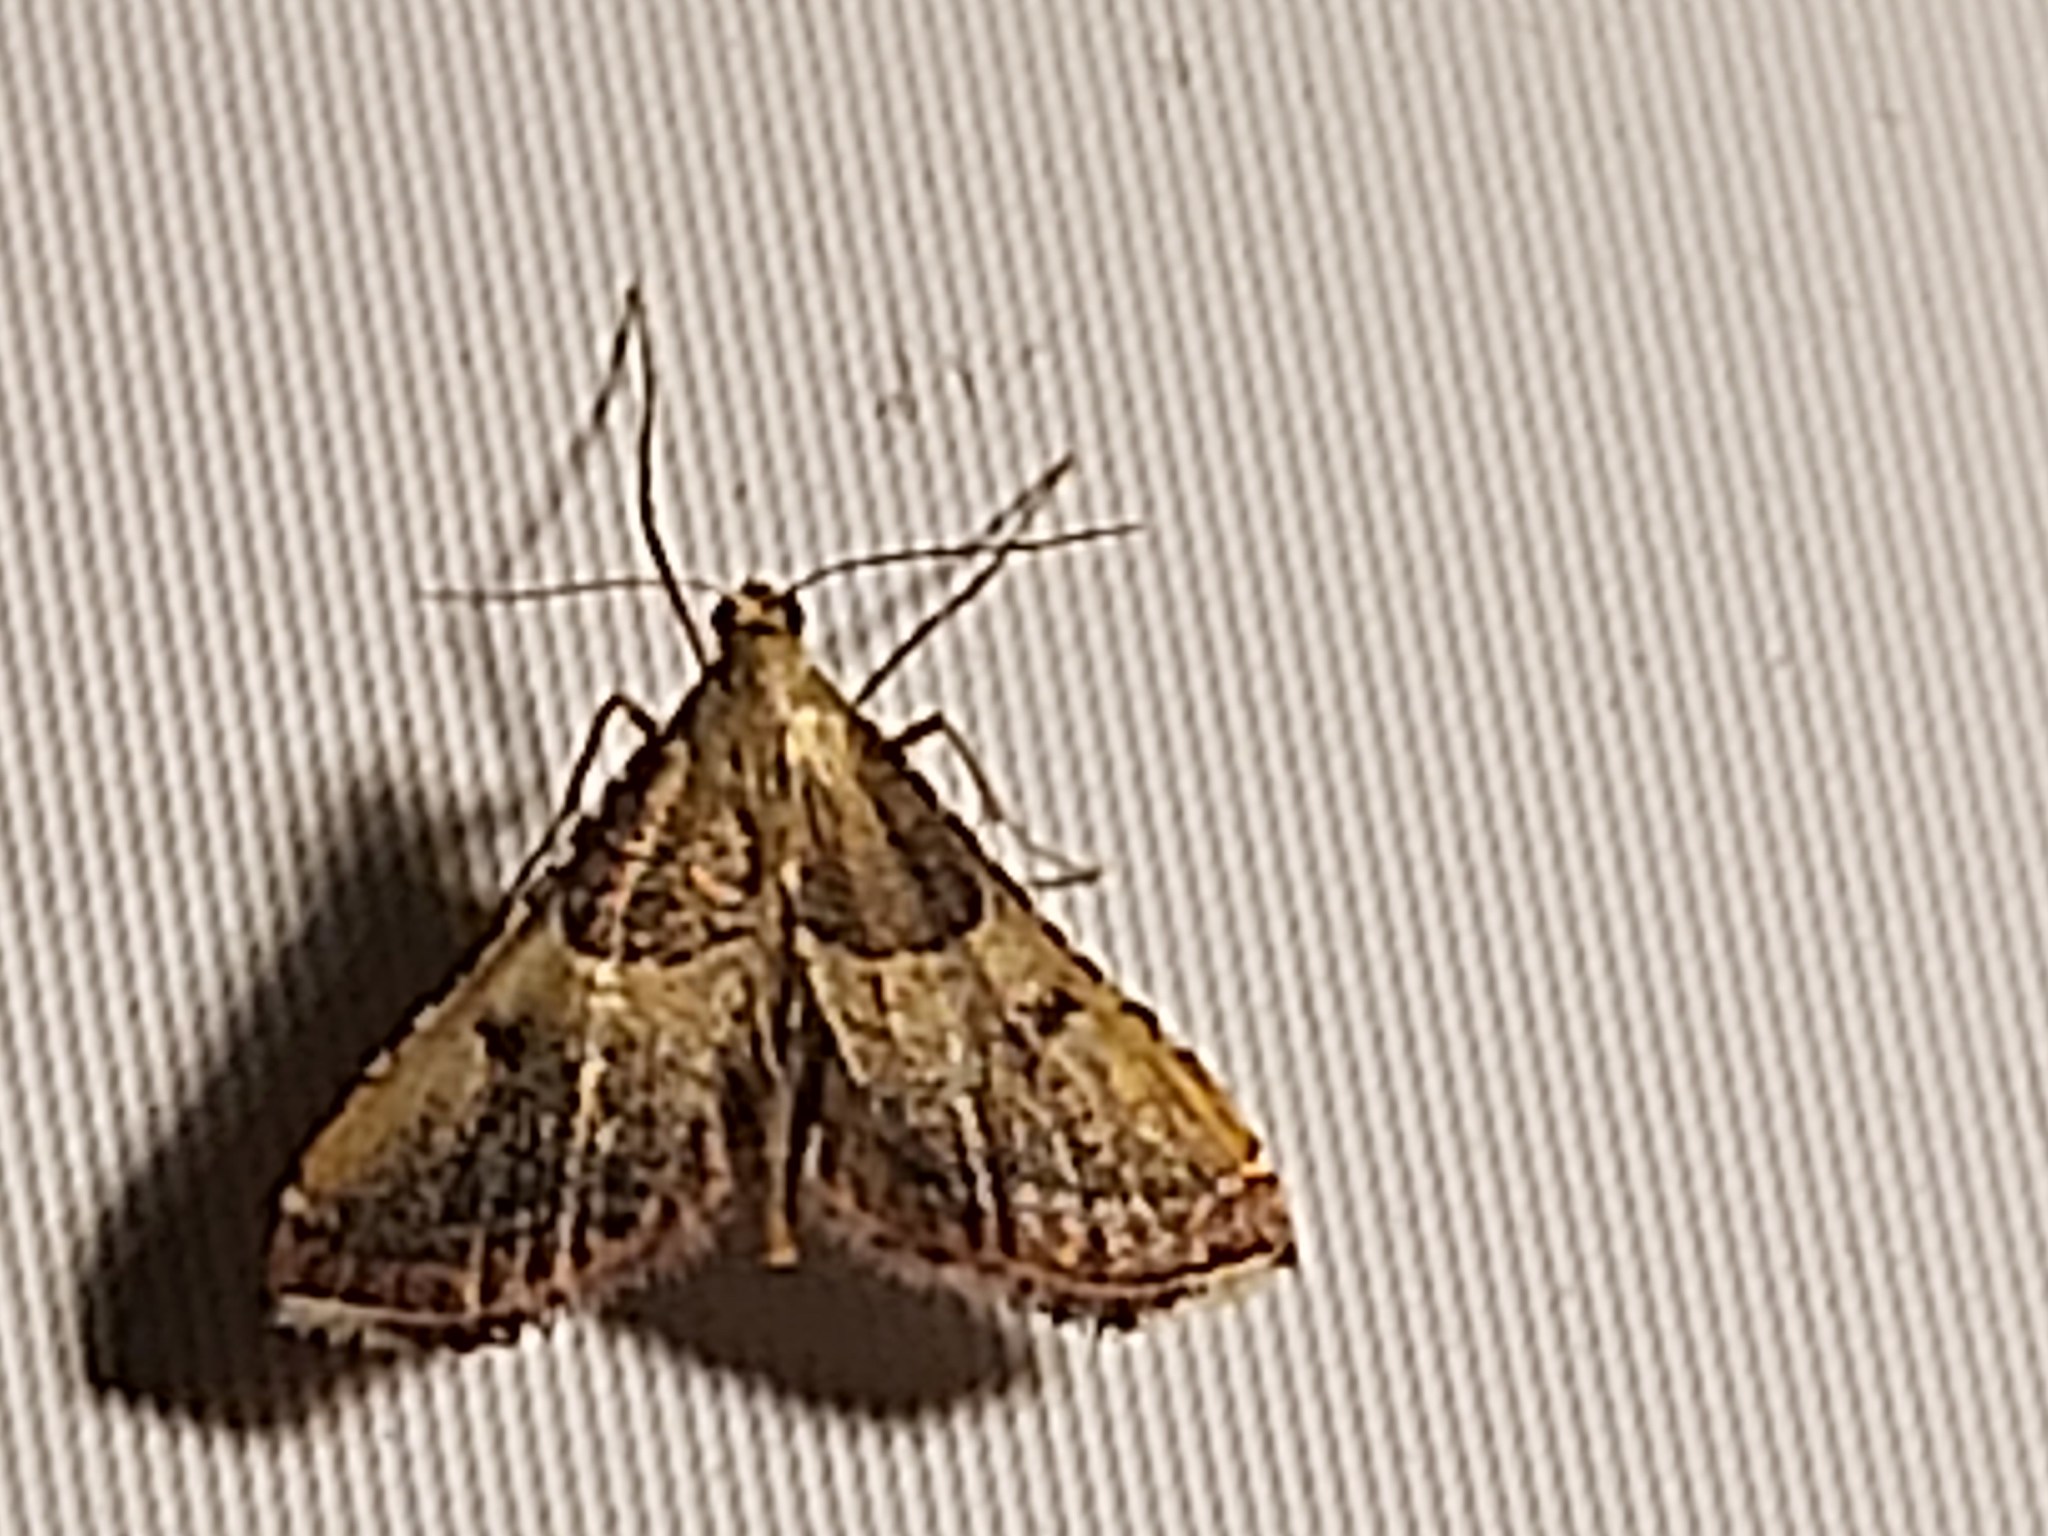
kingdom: Animalia
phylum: Arthropoda
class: Insecta
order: Lepidoptera
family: Pyralidae
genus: Endotricha
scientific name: Endotricha flammealis
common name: Rosy tabby
